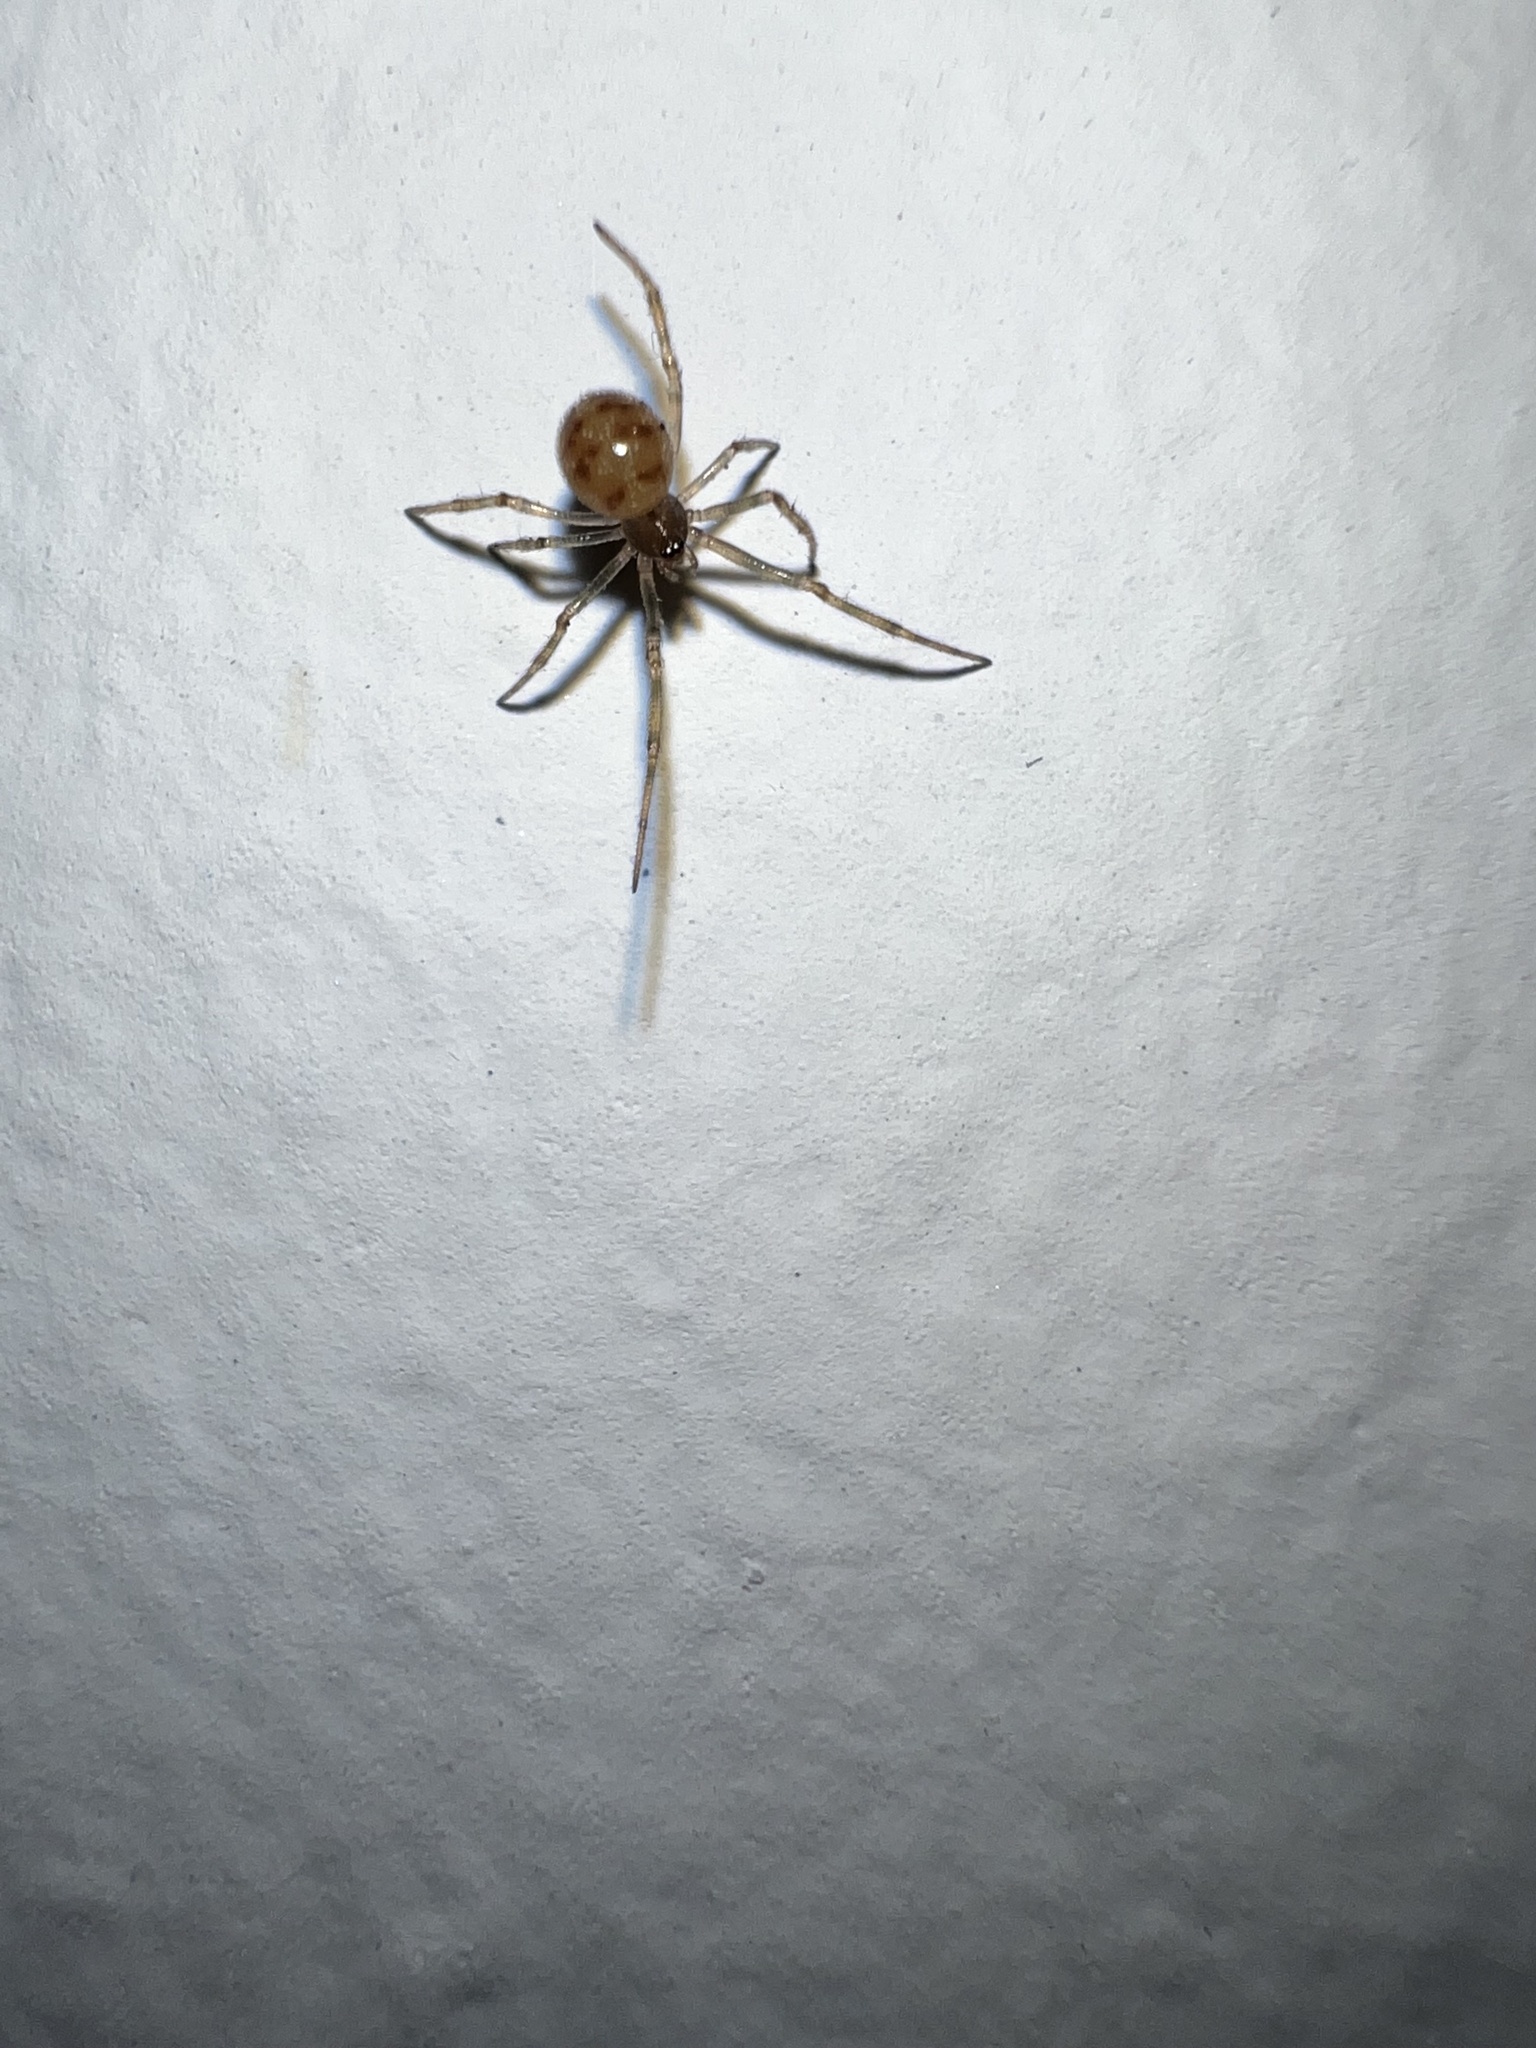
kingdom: Animalia
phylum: Arthropoda
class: Arachnida
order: Araneae
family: Theridiidae
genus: Steatoda
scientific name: Steatoda triangulosa
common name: Triangulate bud spider
